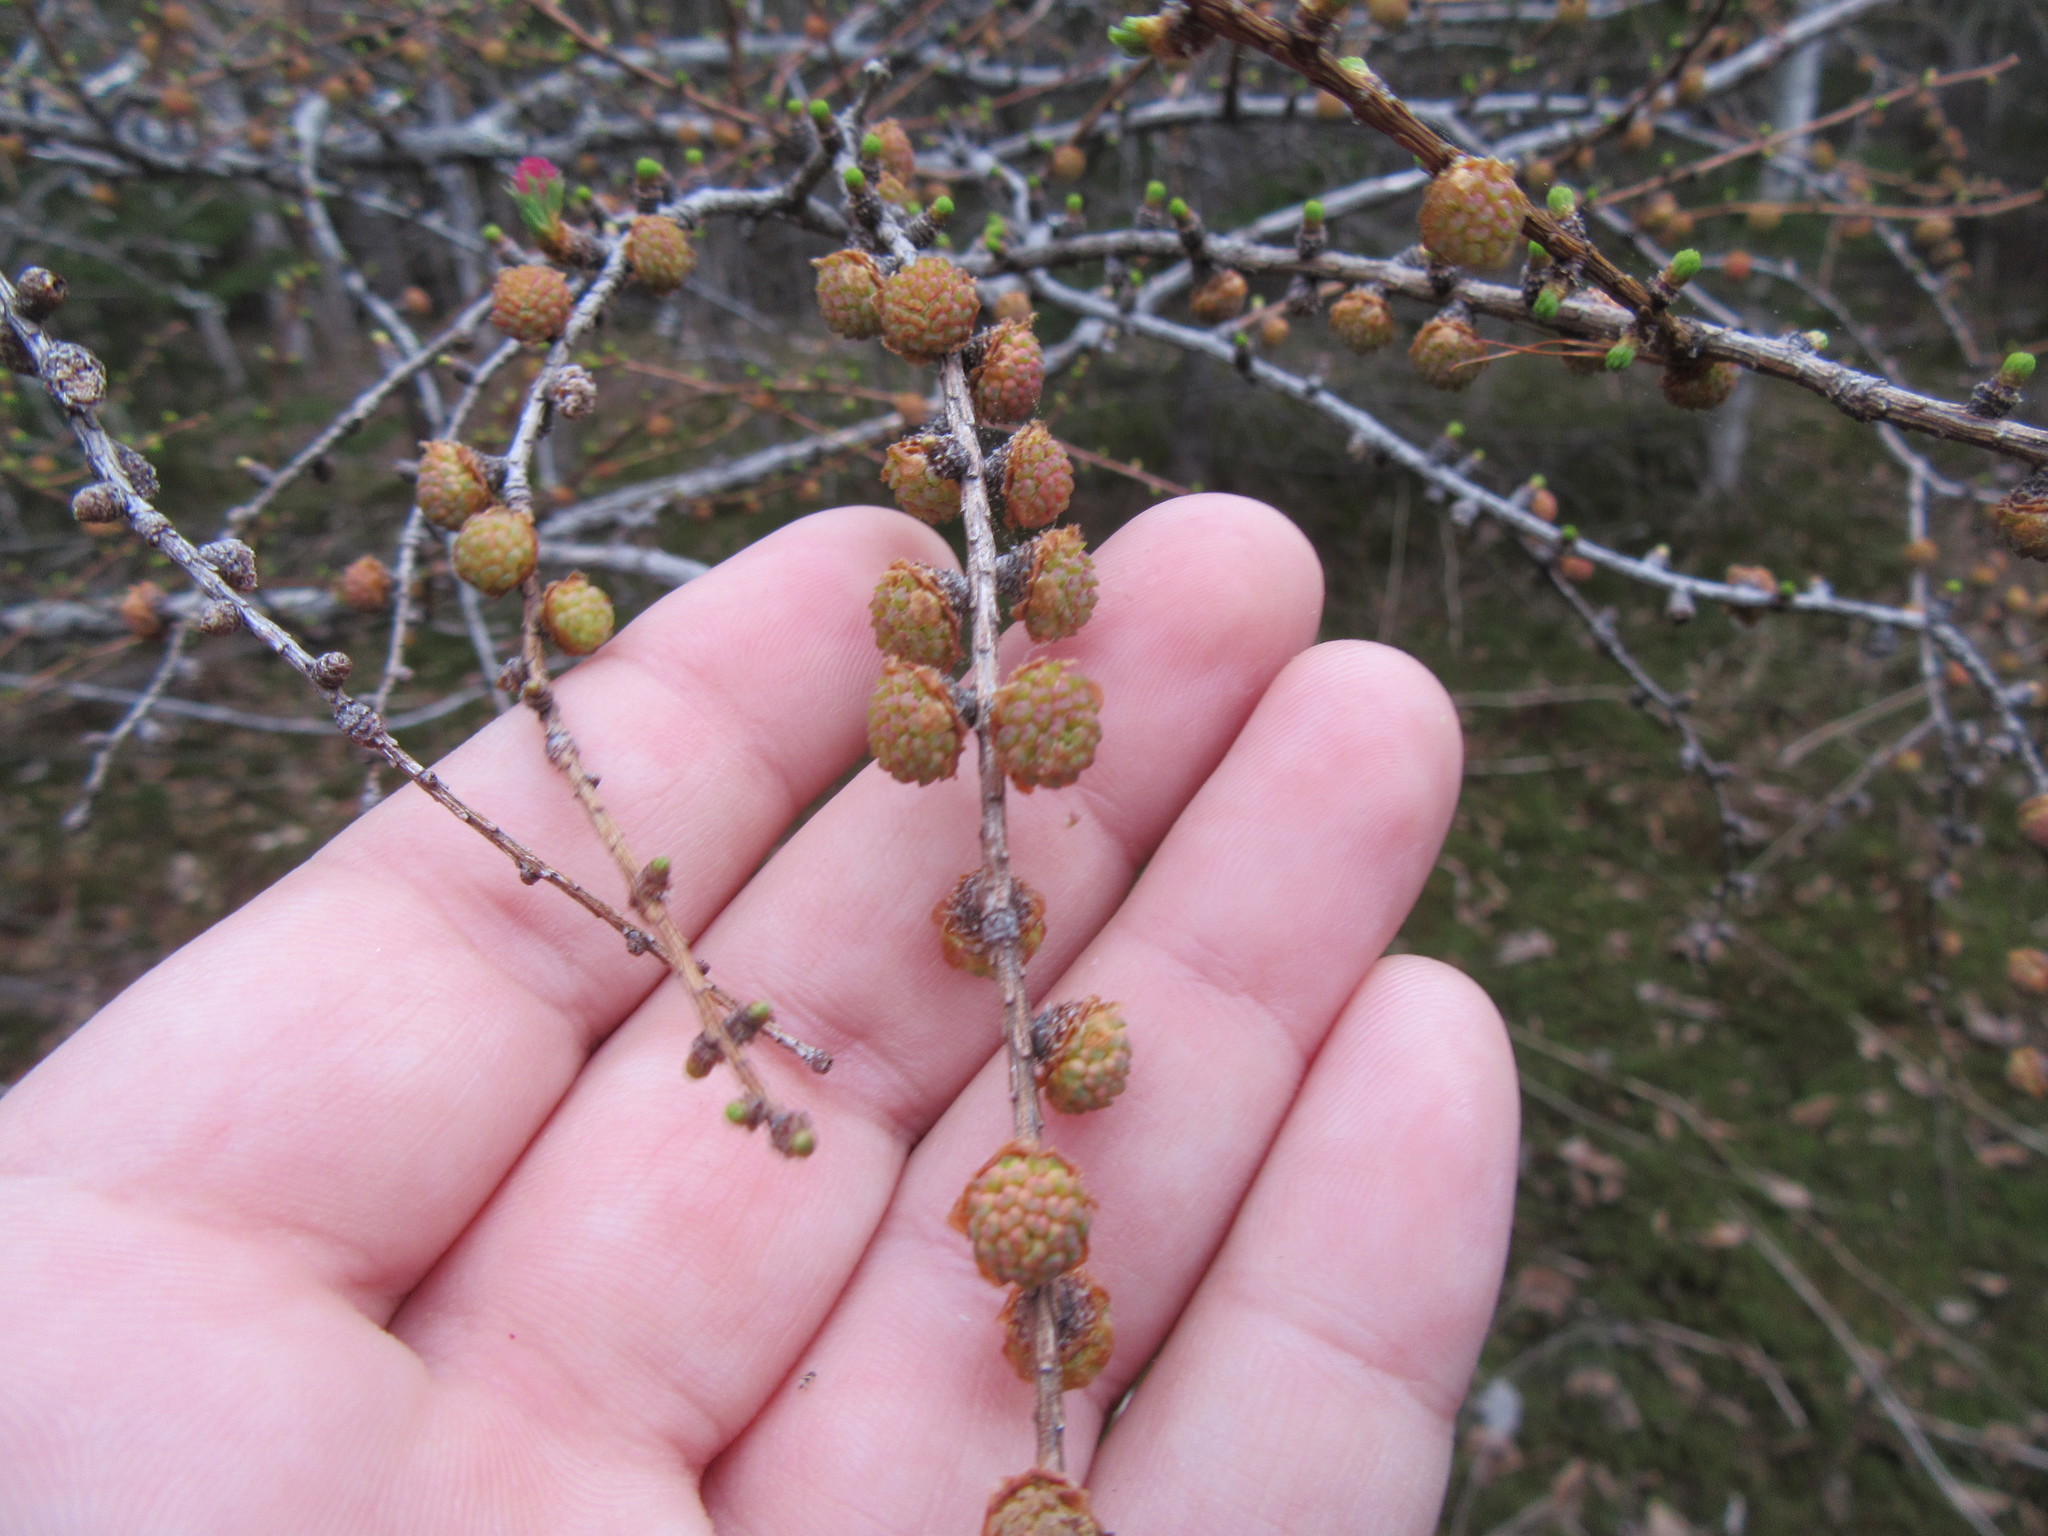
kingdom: Plantae
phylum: Tracheophyta
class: Pinopsida
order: Pinales
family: Pinaceae
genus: Larix
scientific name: Larix laricina
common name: American larch
